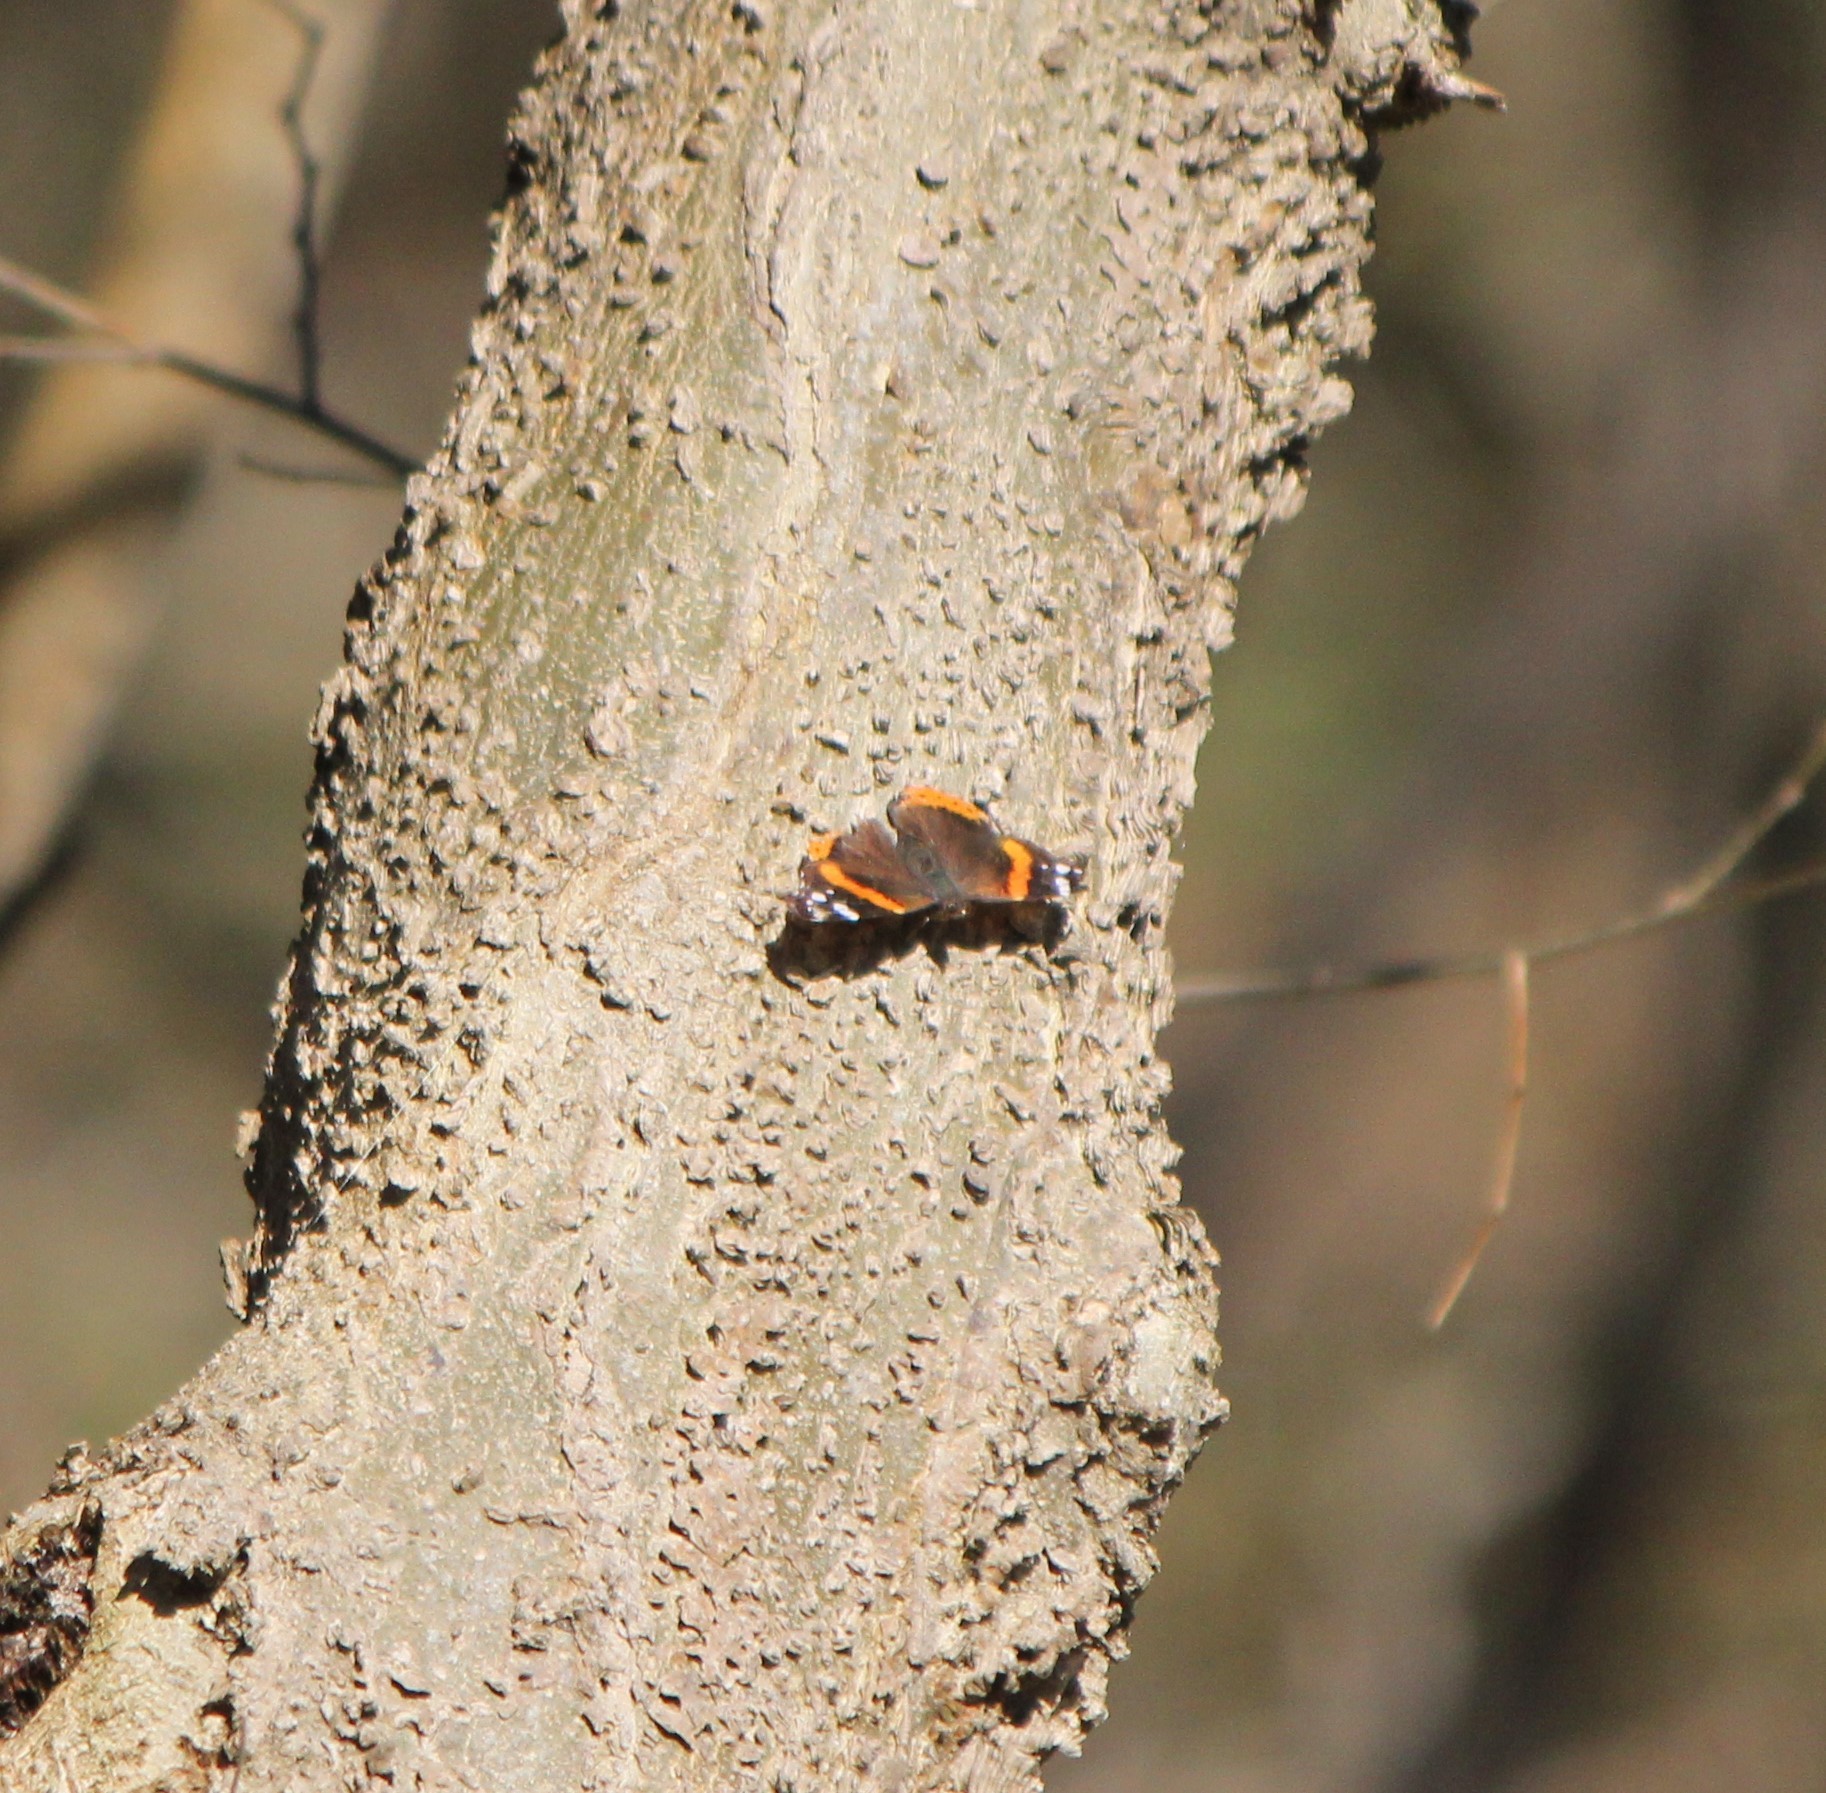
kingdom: Animalia
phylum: Arthropoda
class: Insecta
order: Lepidoptera
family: Nymphalidae
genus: Vanessa
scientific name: Vanessa atalanta
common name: Red admiral
